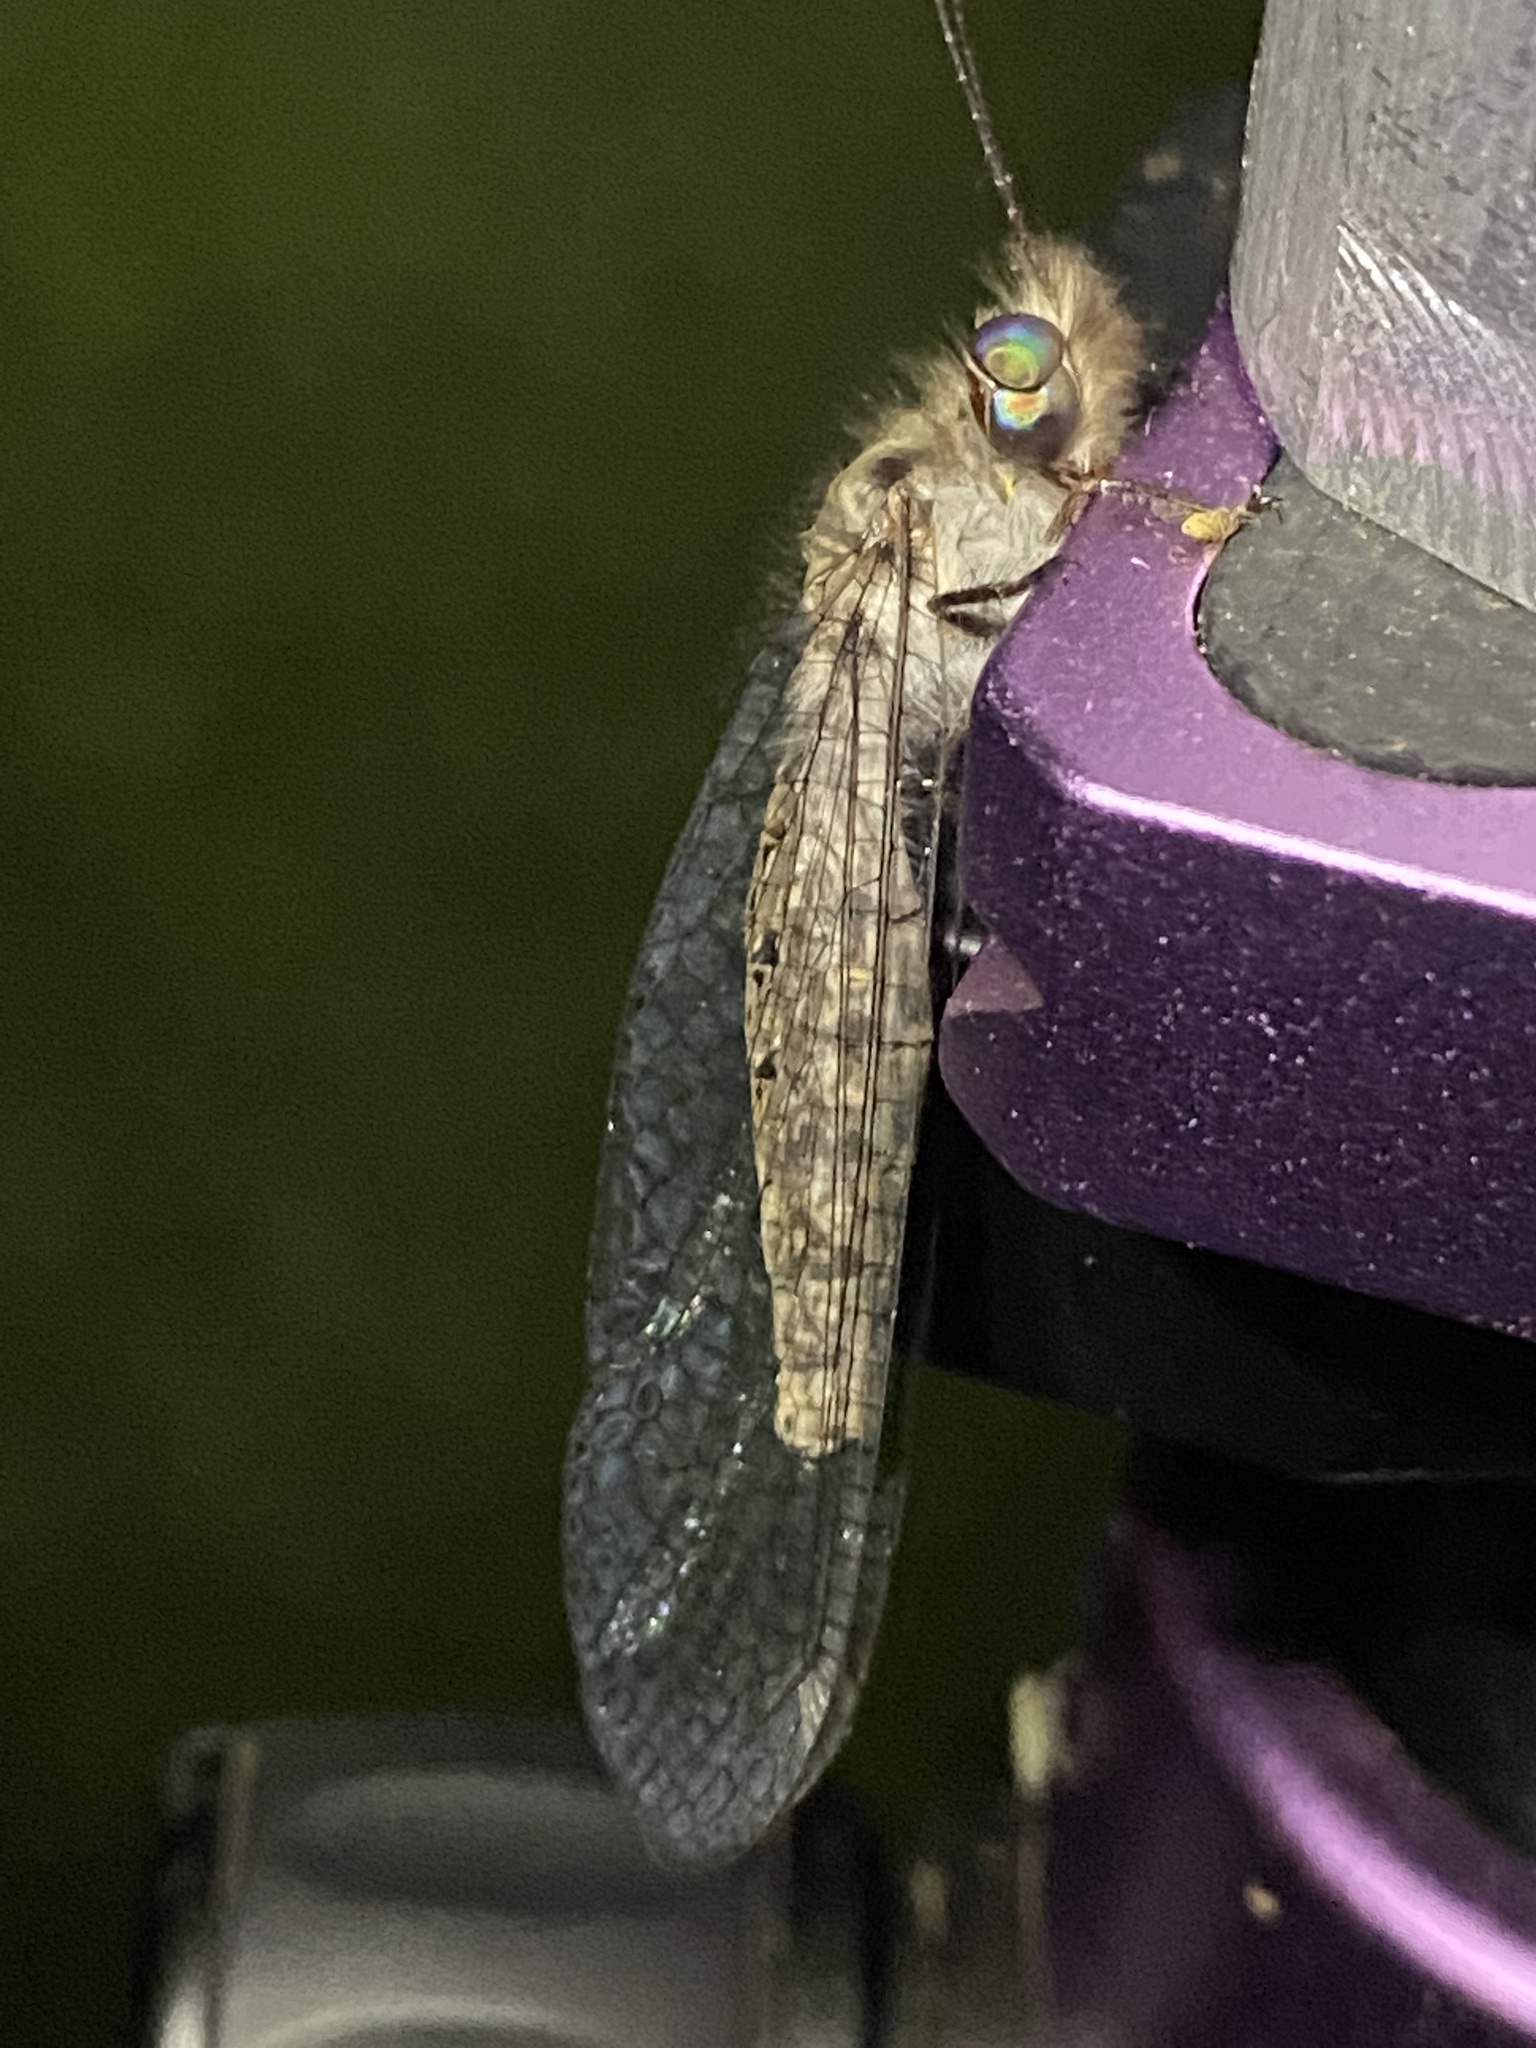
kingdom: Animalia
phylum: Arthropoda
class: Insecta
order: Neuroptera
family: Ascalaphidae
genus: Ululodes
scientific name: Ululodes quadripunctatus
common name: Four-spotted owlfly
